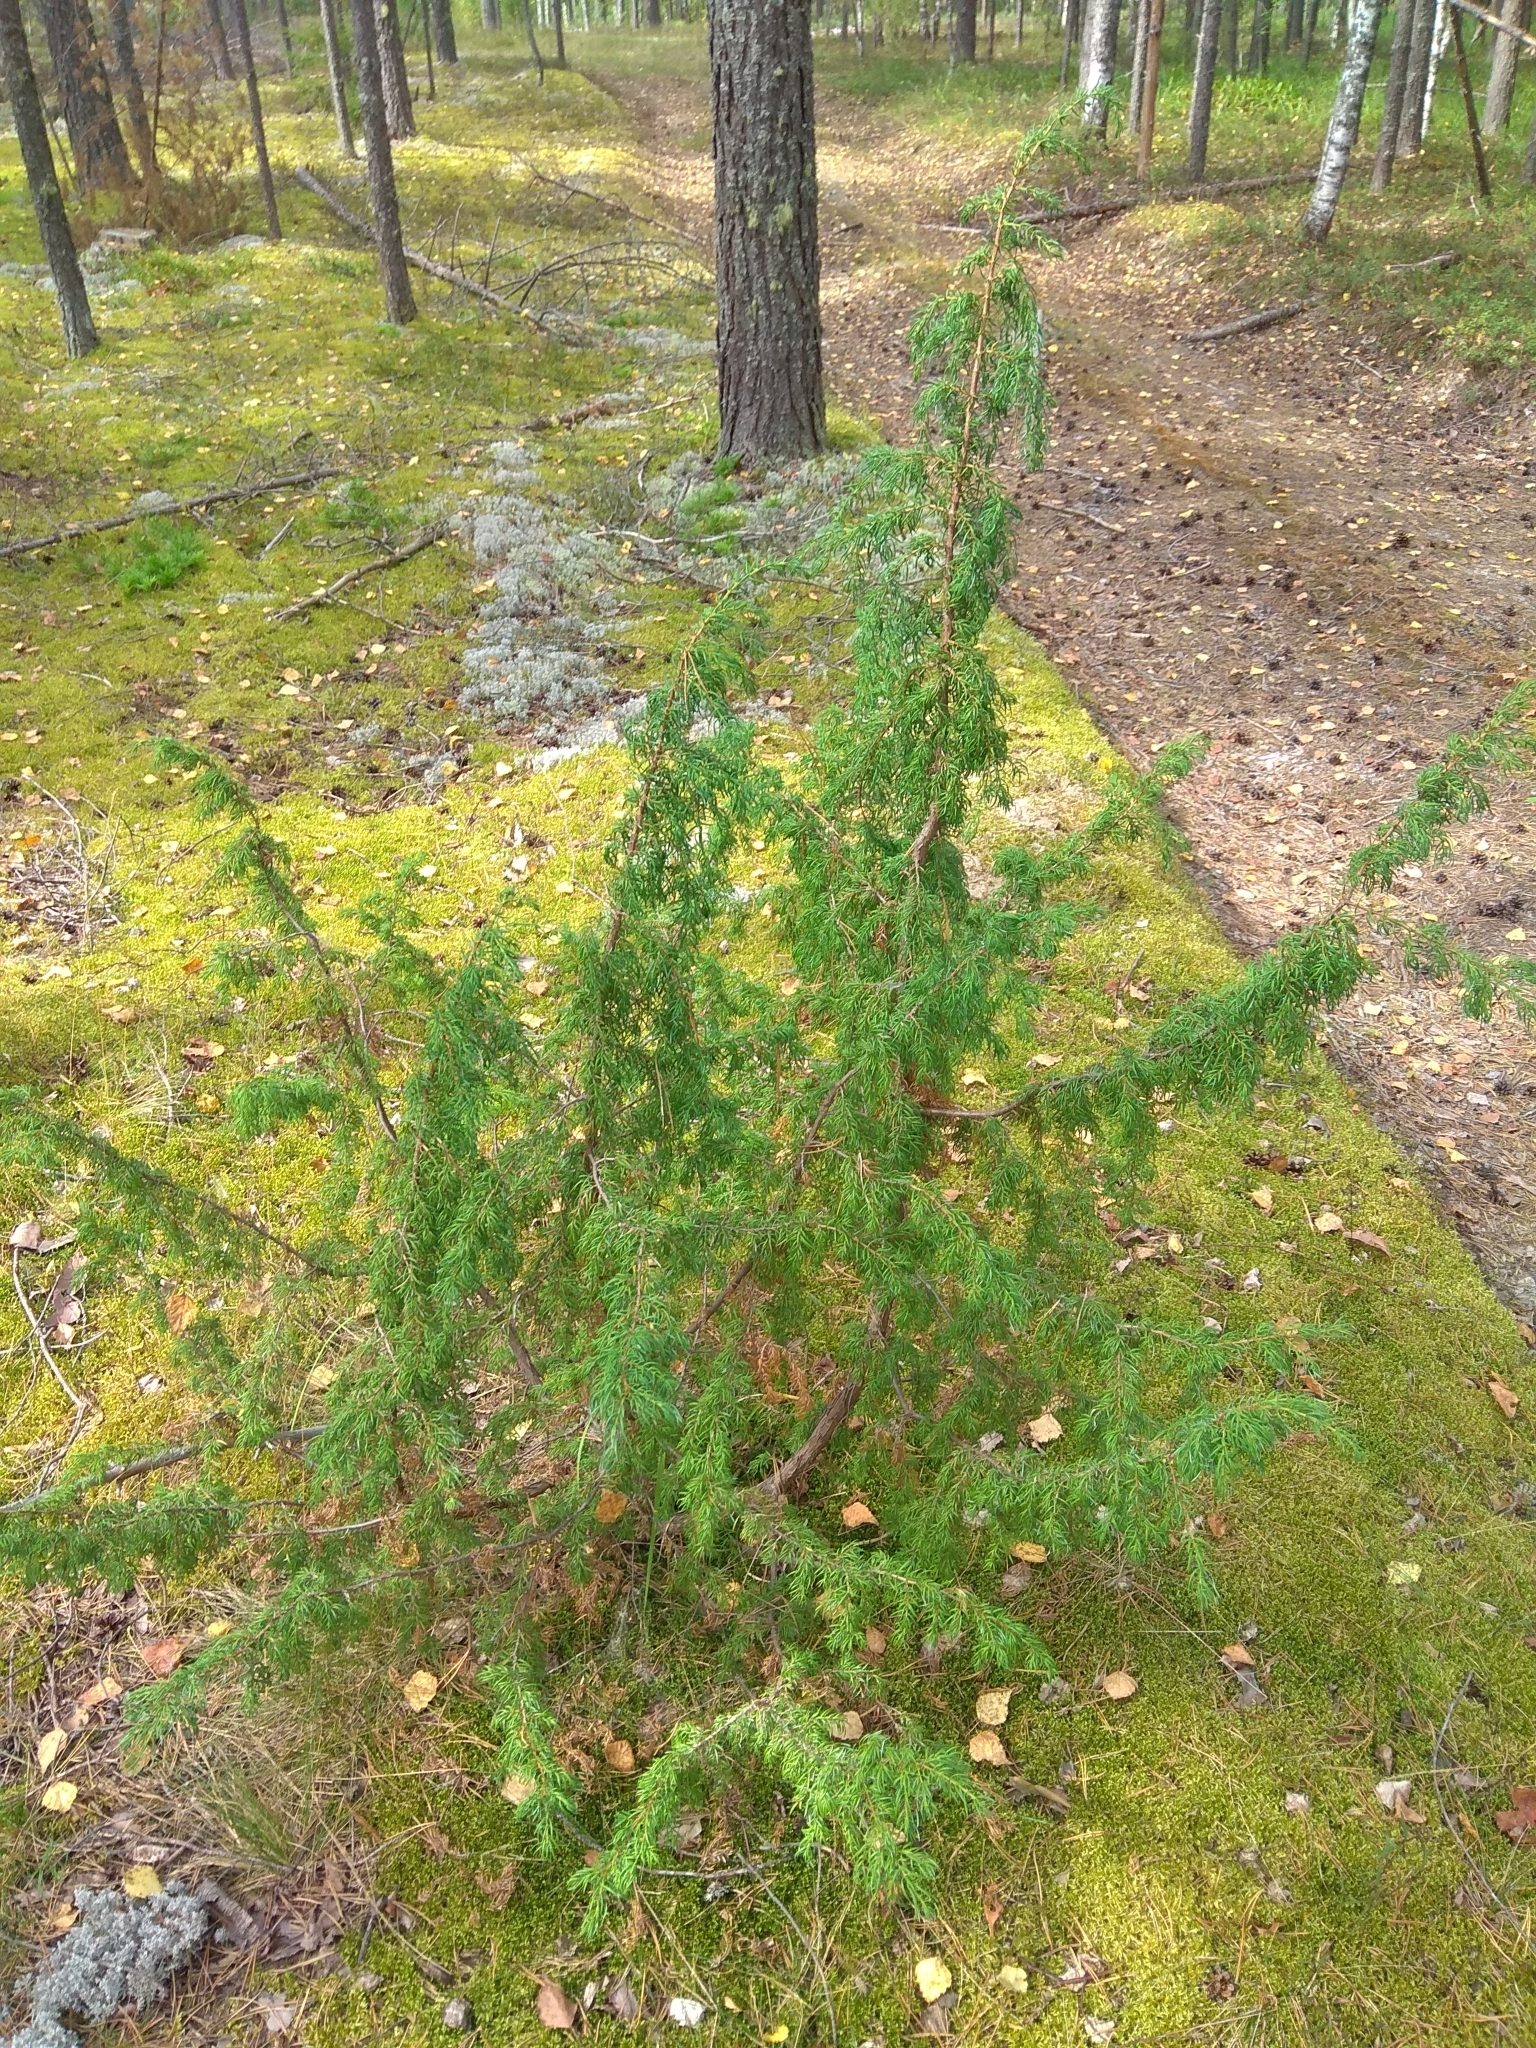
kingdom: Plantae
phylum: Tracheophyta
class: Pinopsida
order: Pinales
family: Cupressaceae
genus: Juniperus
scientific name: Juniperus communis
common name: Common juniper
